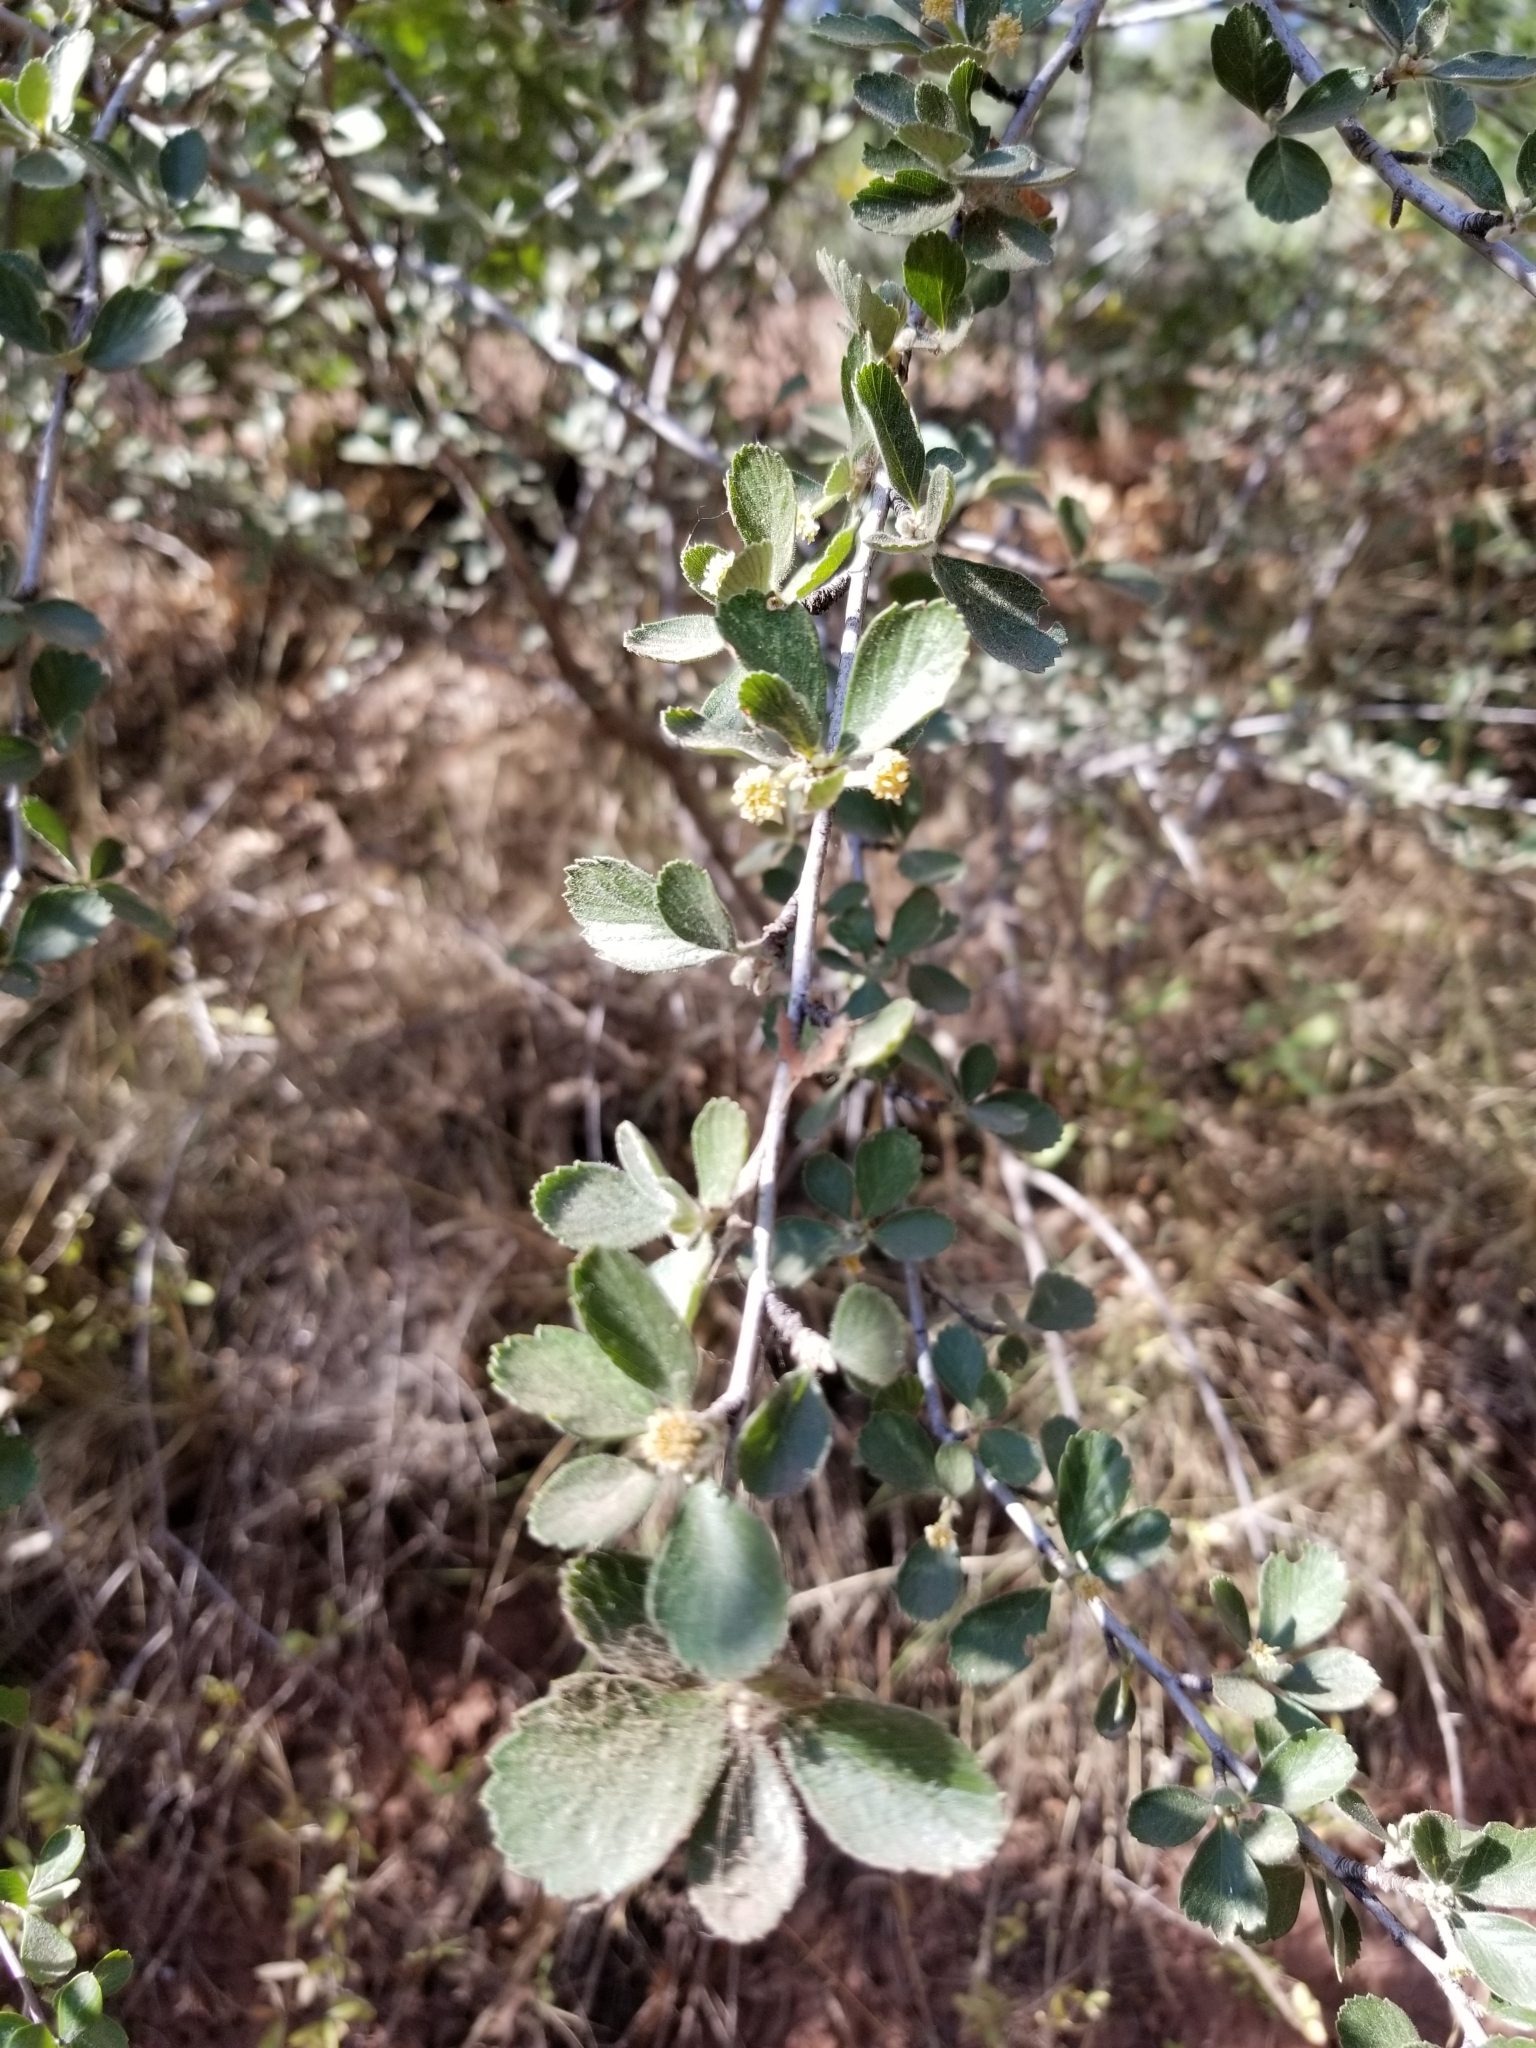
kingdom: Plantae
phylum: Tracheophyta
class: Magnoliopsida
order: Rosales
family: Rosaceae
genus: Cercocarpus
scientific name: Cercocarpus montanus
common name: Alder-leaf cercocarpus
